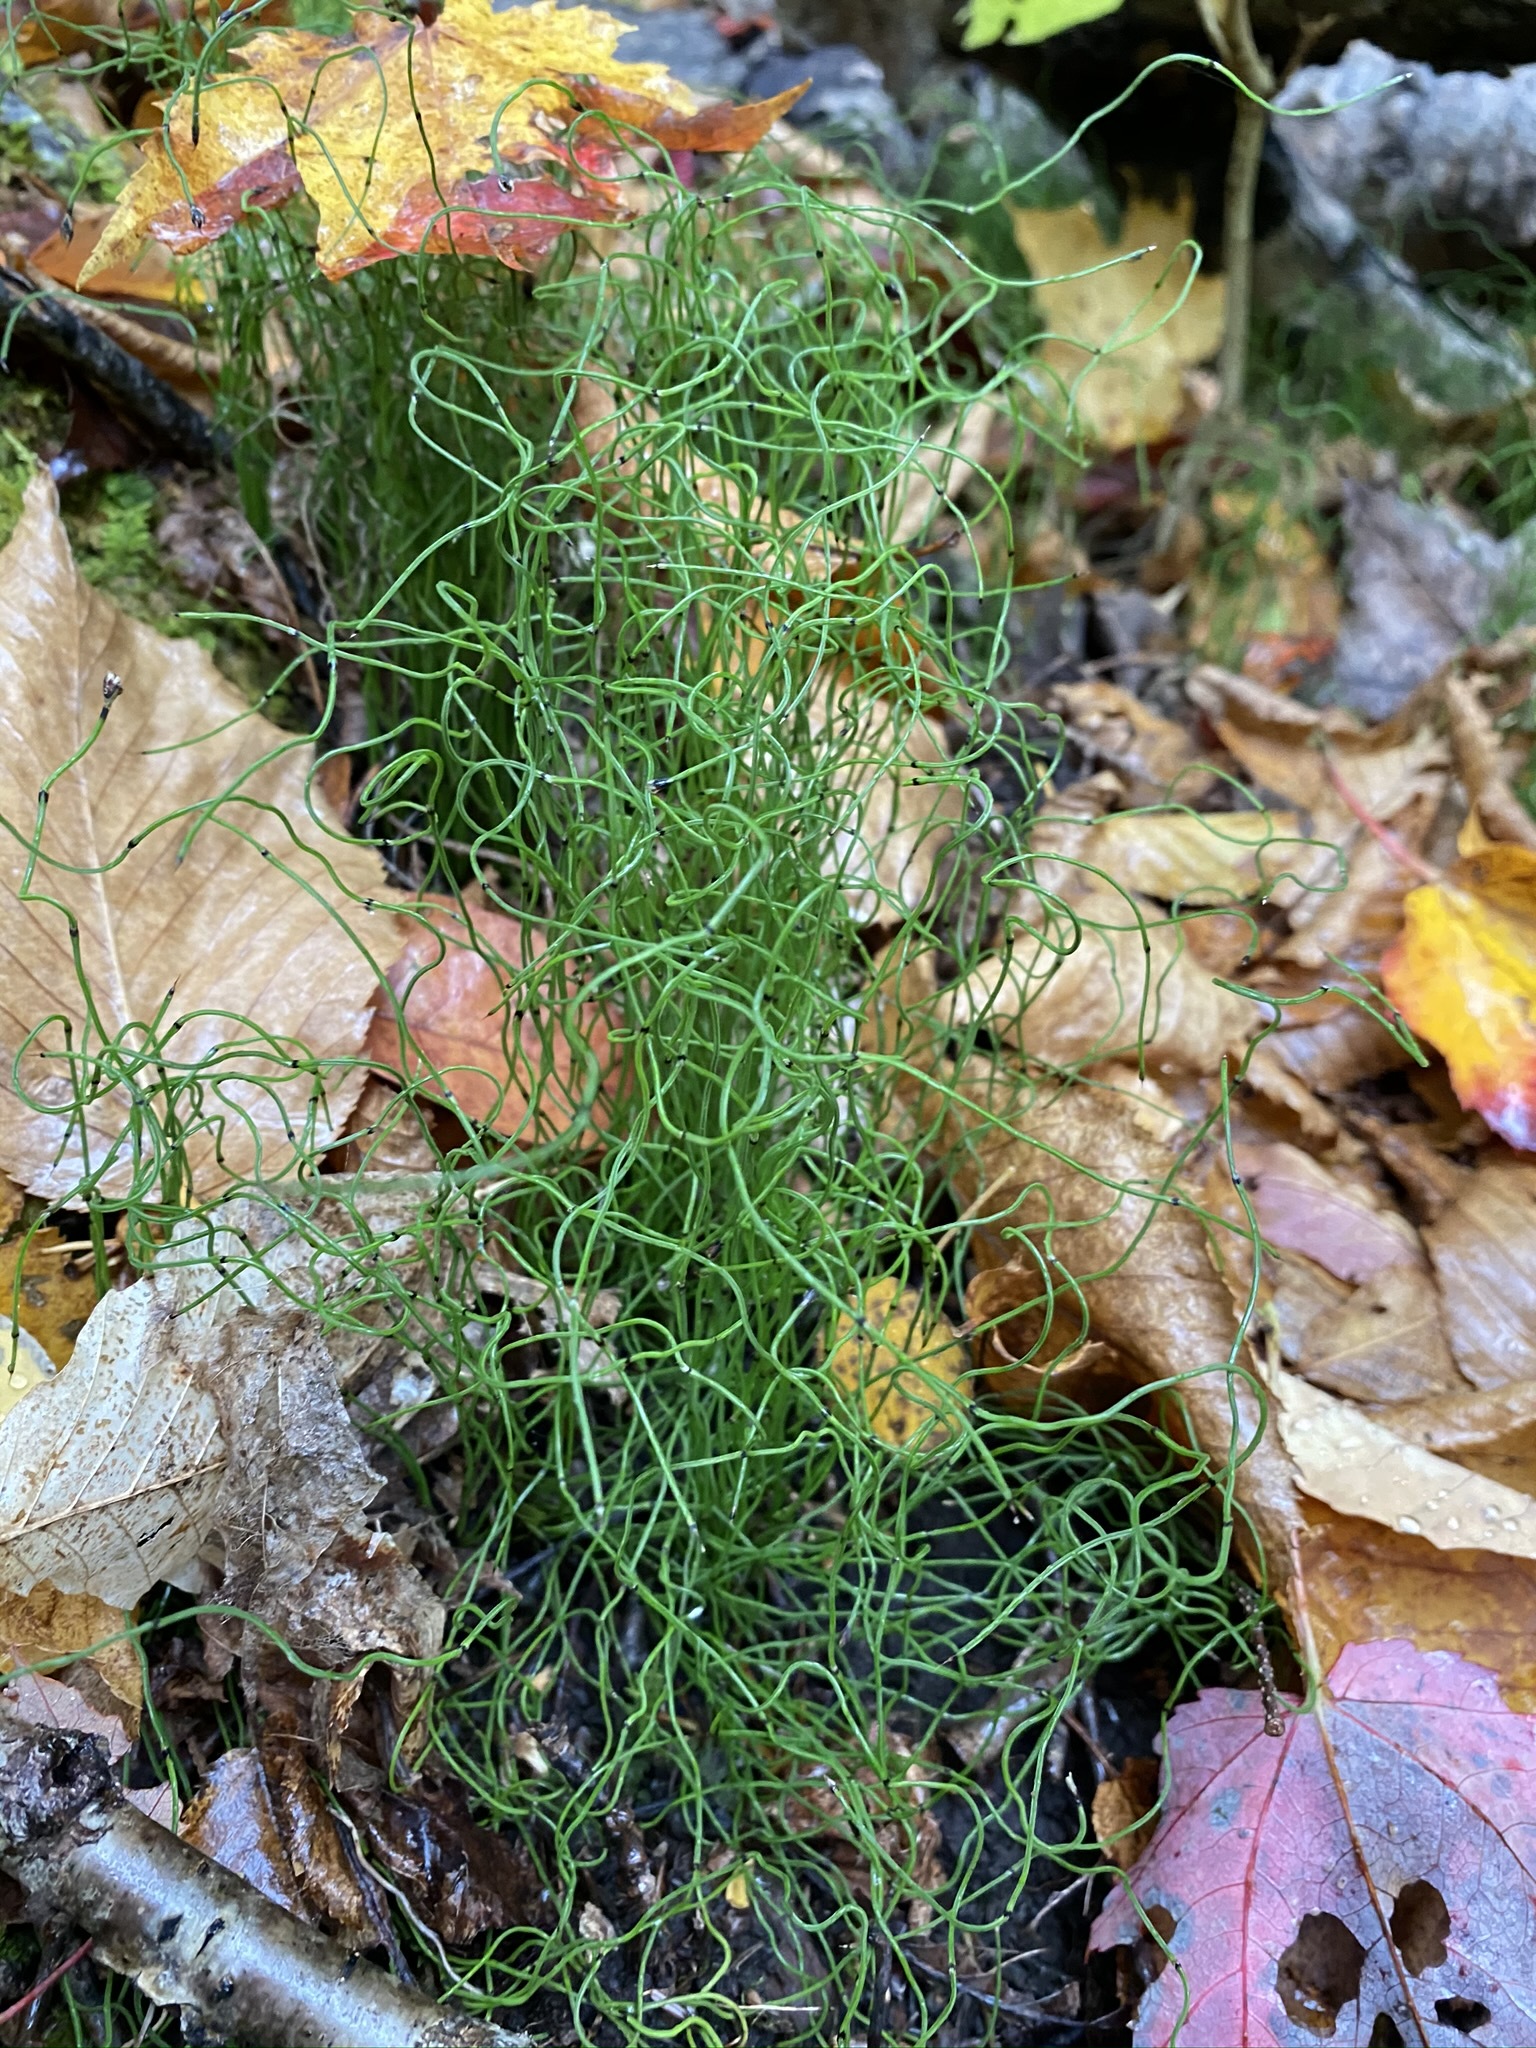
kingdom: Plantae
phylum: Tracheophyta
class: Polypodiopsida
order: Equisetales
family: Equisetaceae
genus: Equisetum
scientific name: Equisetum scirpoides
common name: Delicate horsetail
